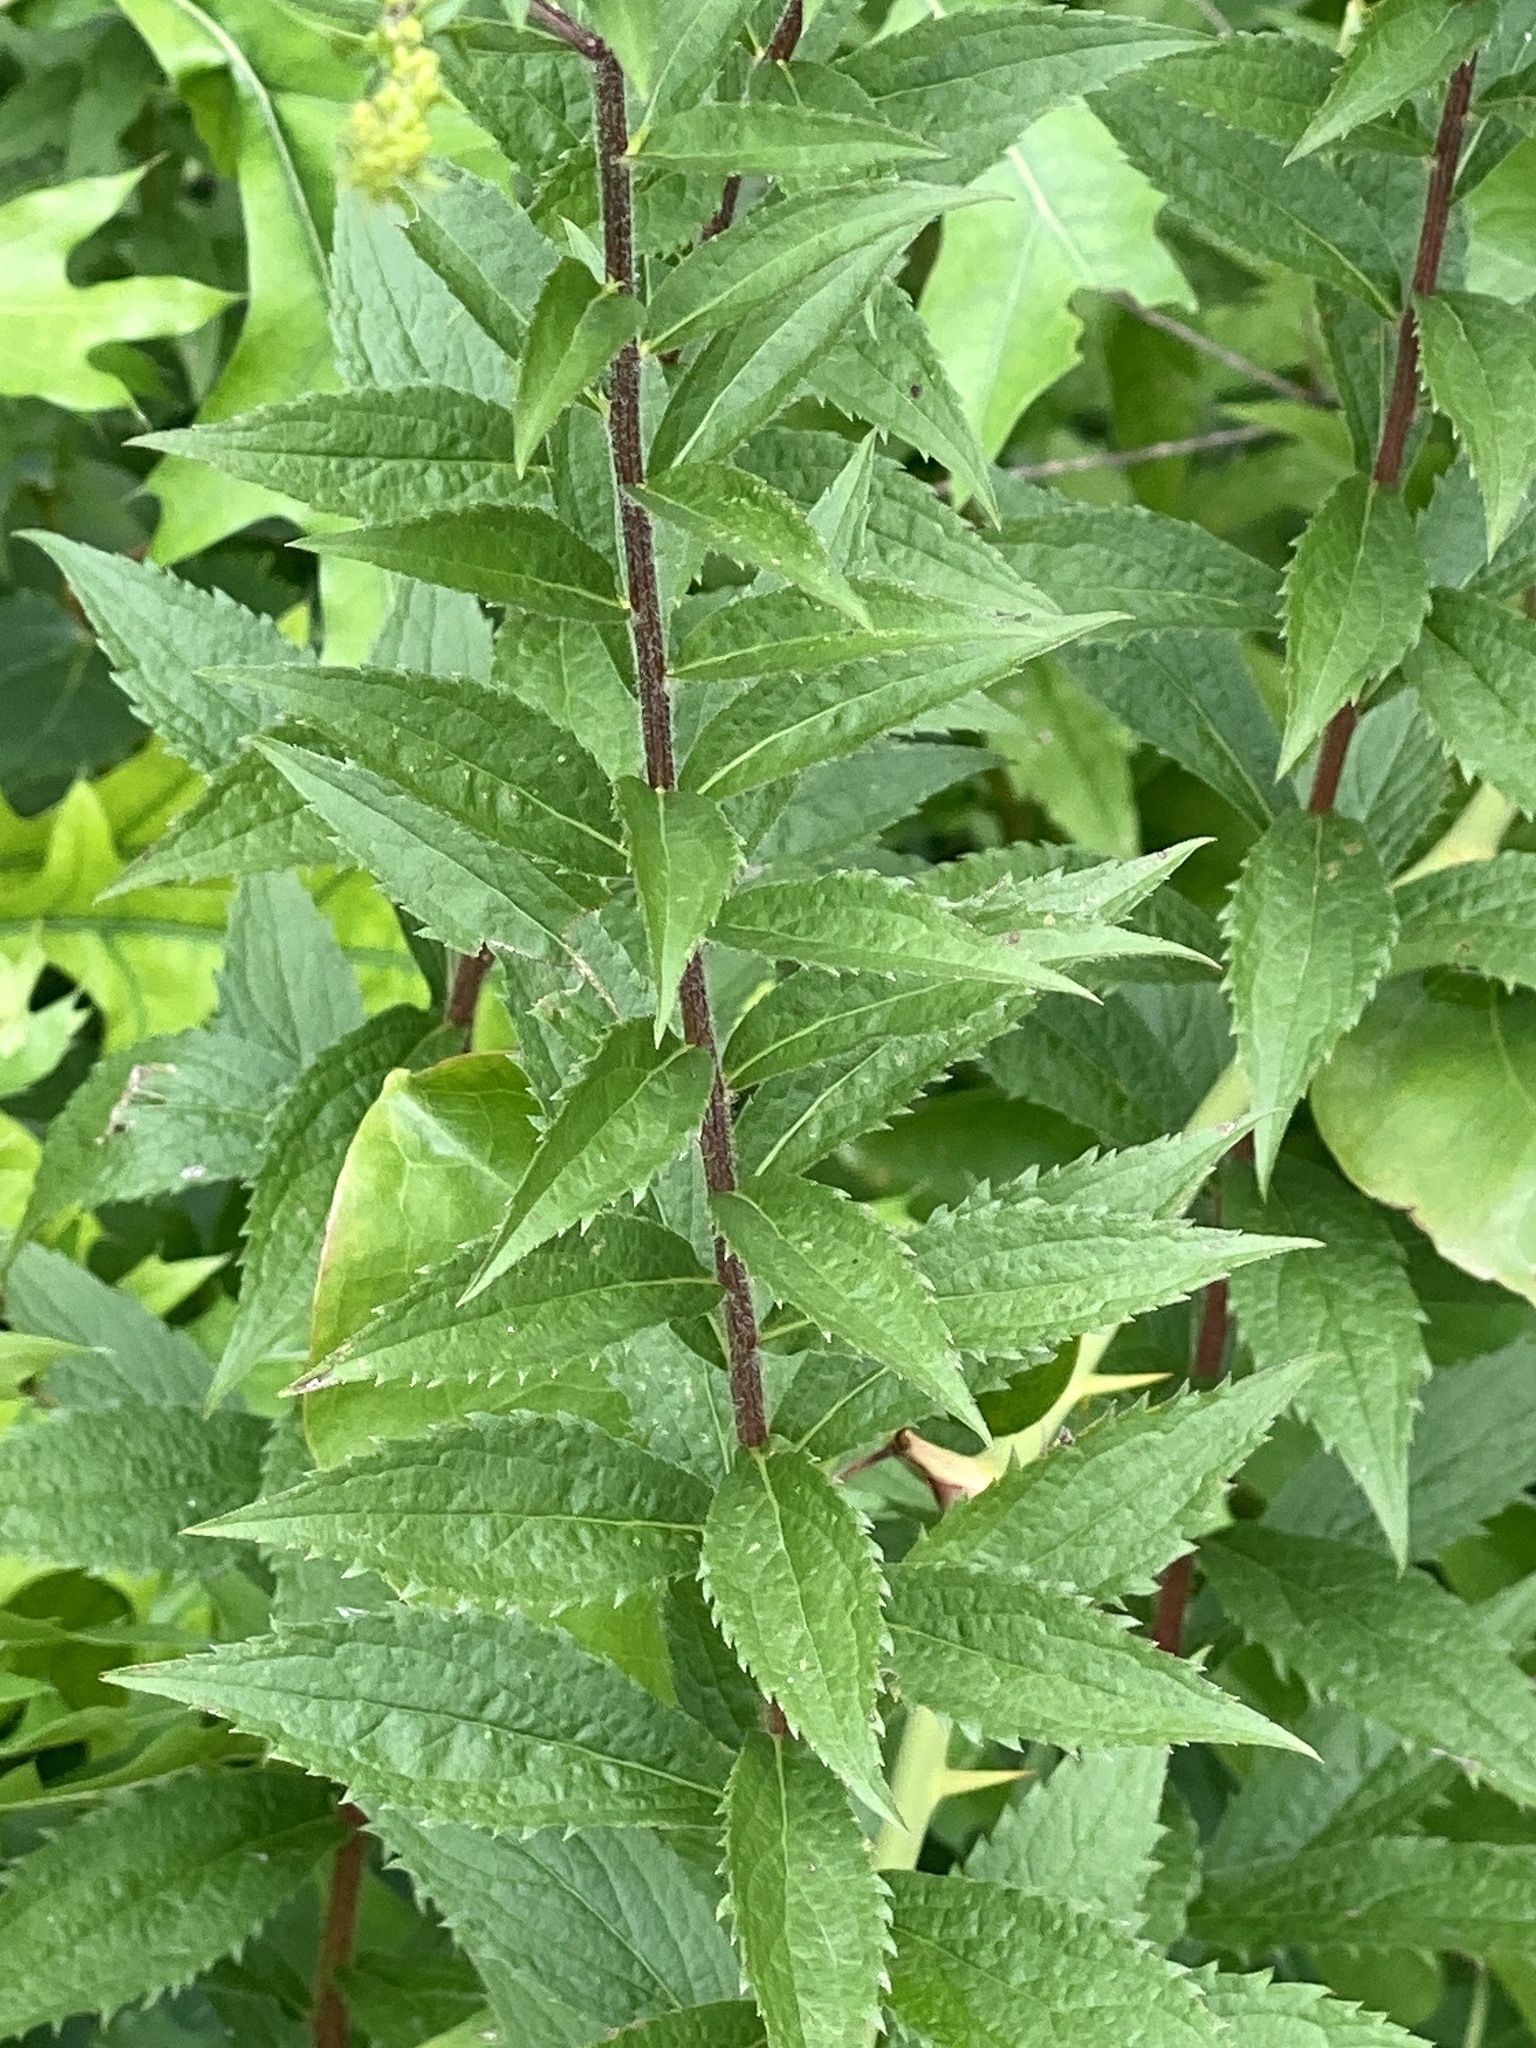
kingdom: Plantae
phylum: Tracheophyta
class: Magnoliopsida
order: Asterales
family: Asteraceae
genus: Solidago
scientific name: Solidago rugosa
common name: Rough-stemmed goldenrod
